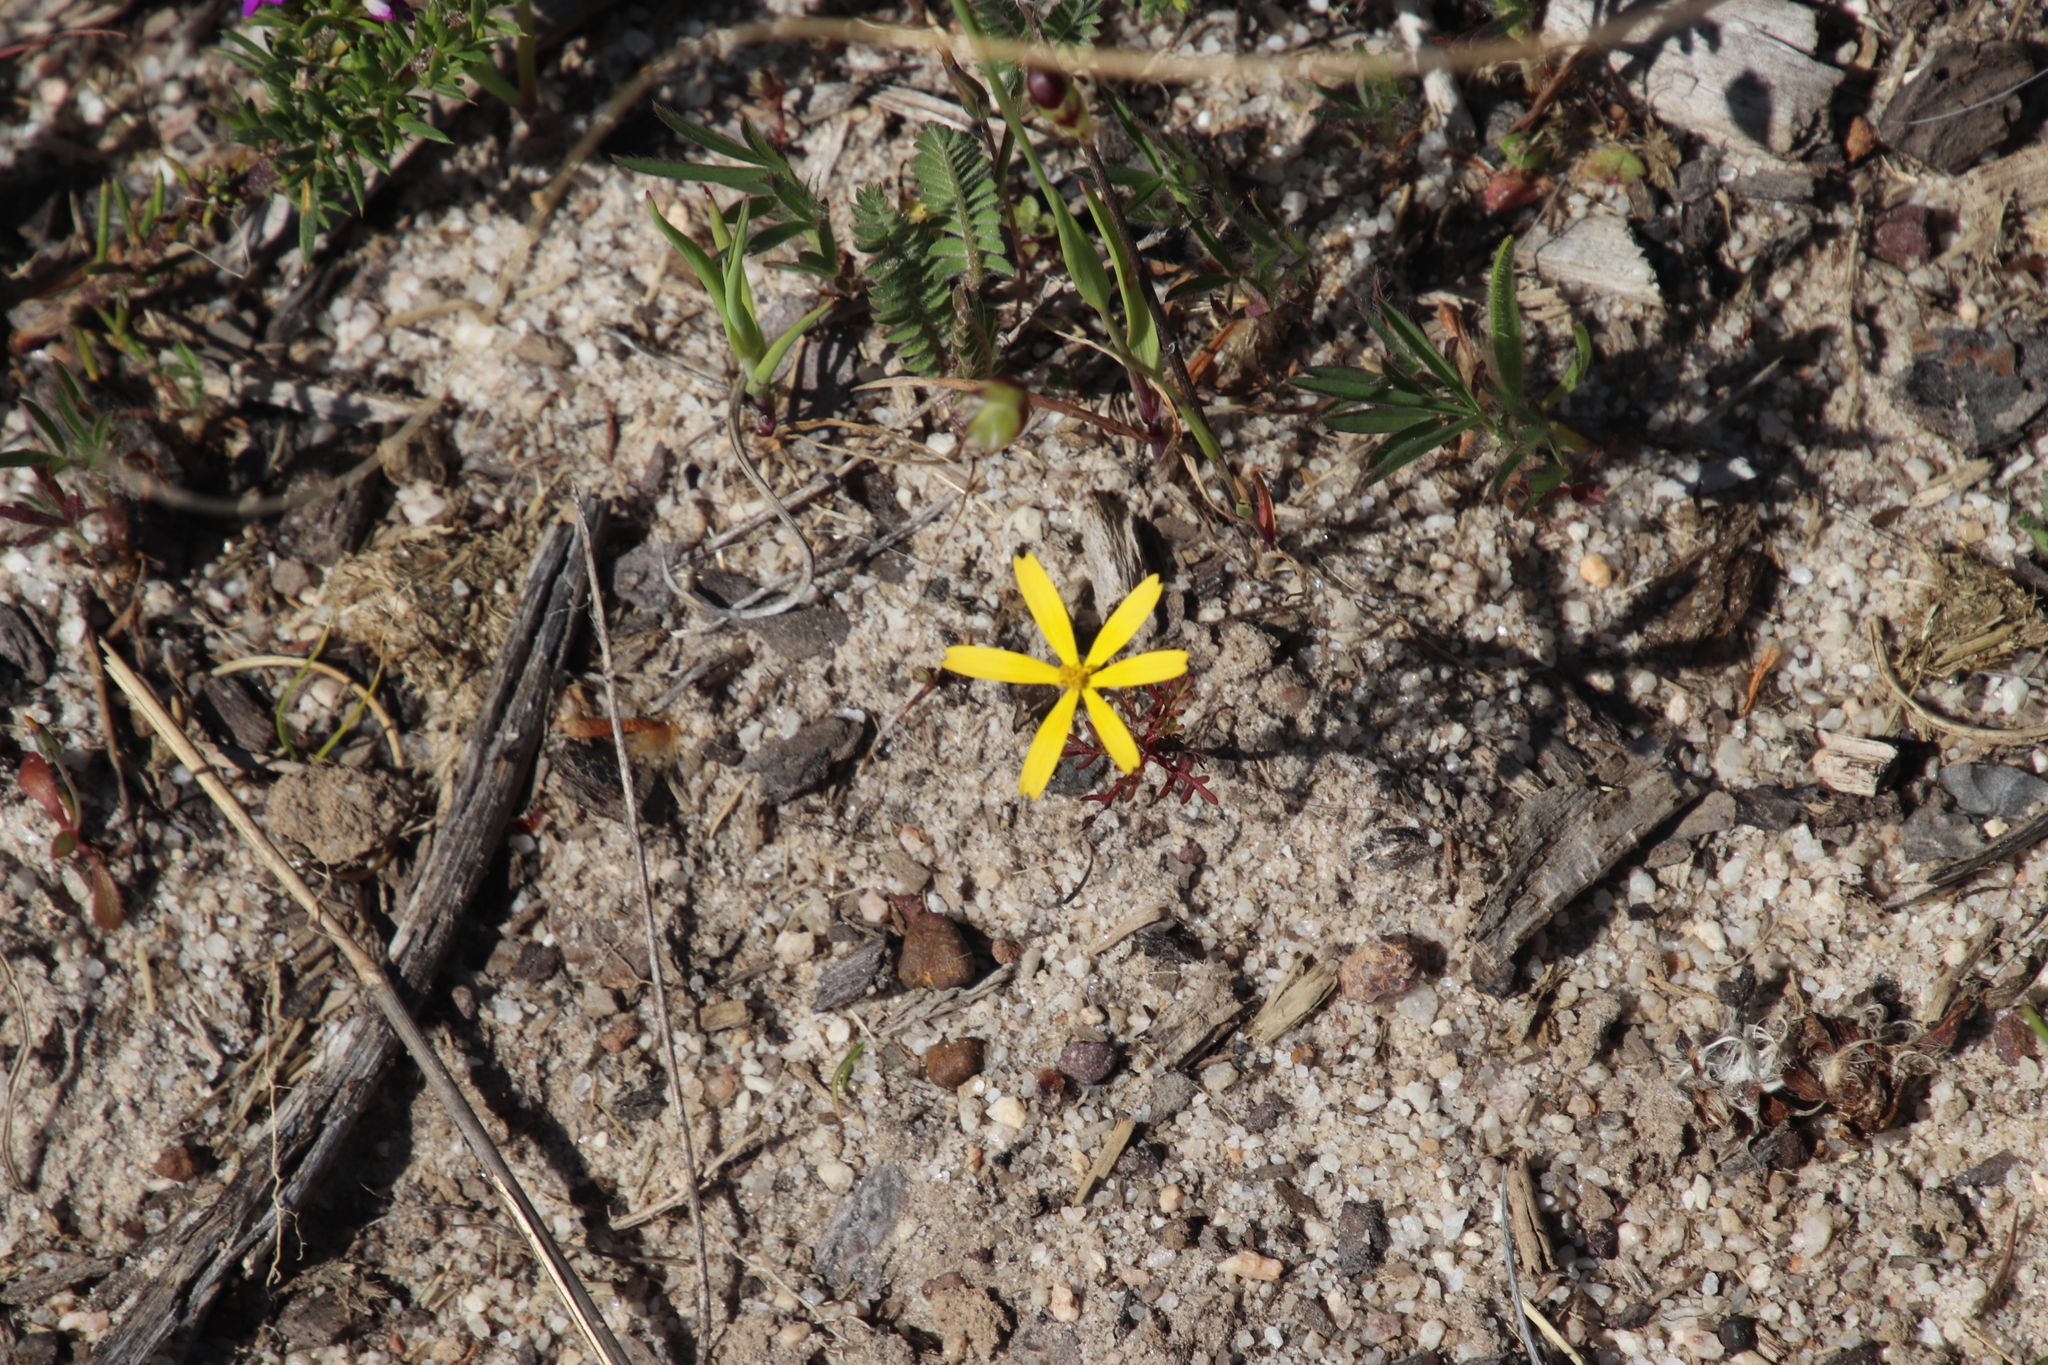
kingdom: Plantae
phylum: Tracheophyta
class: Magnoliopsida
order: Asterales
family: Asteraceae
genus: Ursinia
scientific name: Ursinia anthemoides
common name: Ursinia
